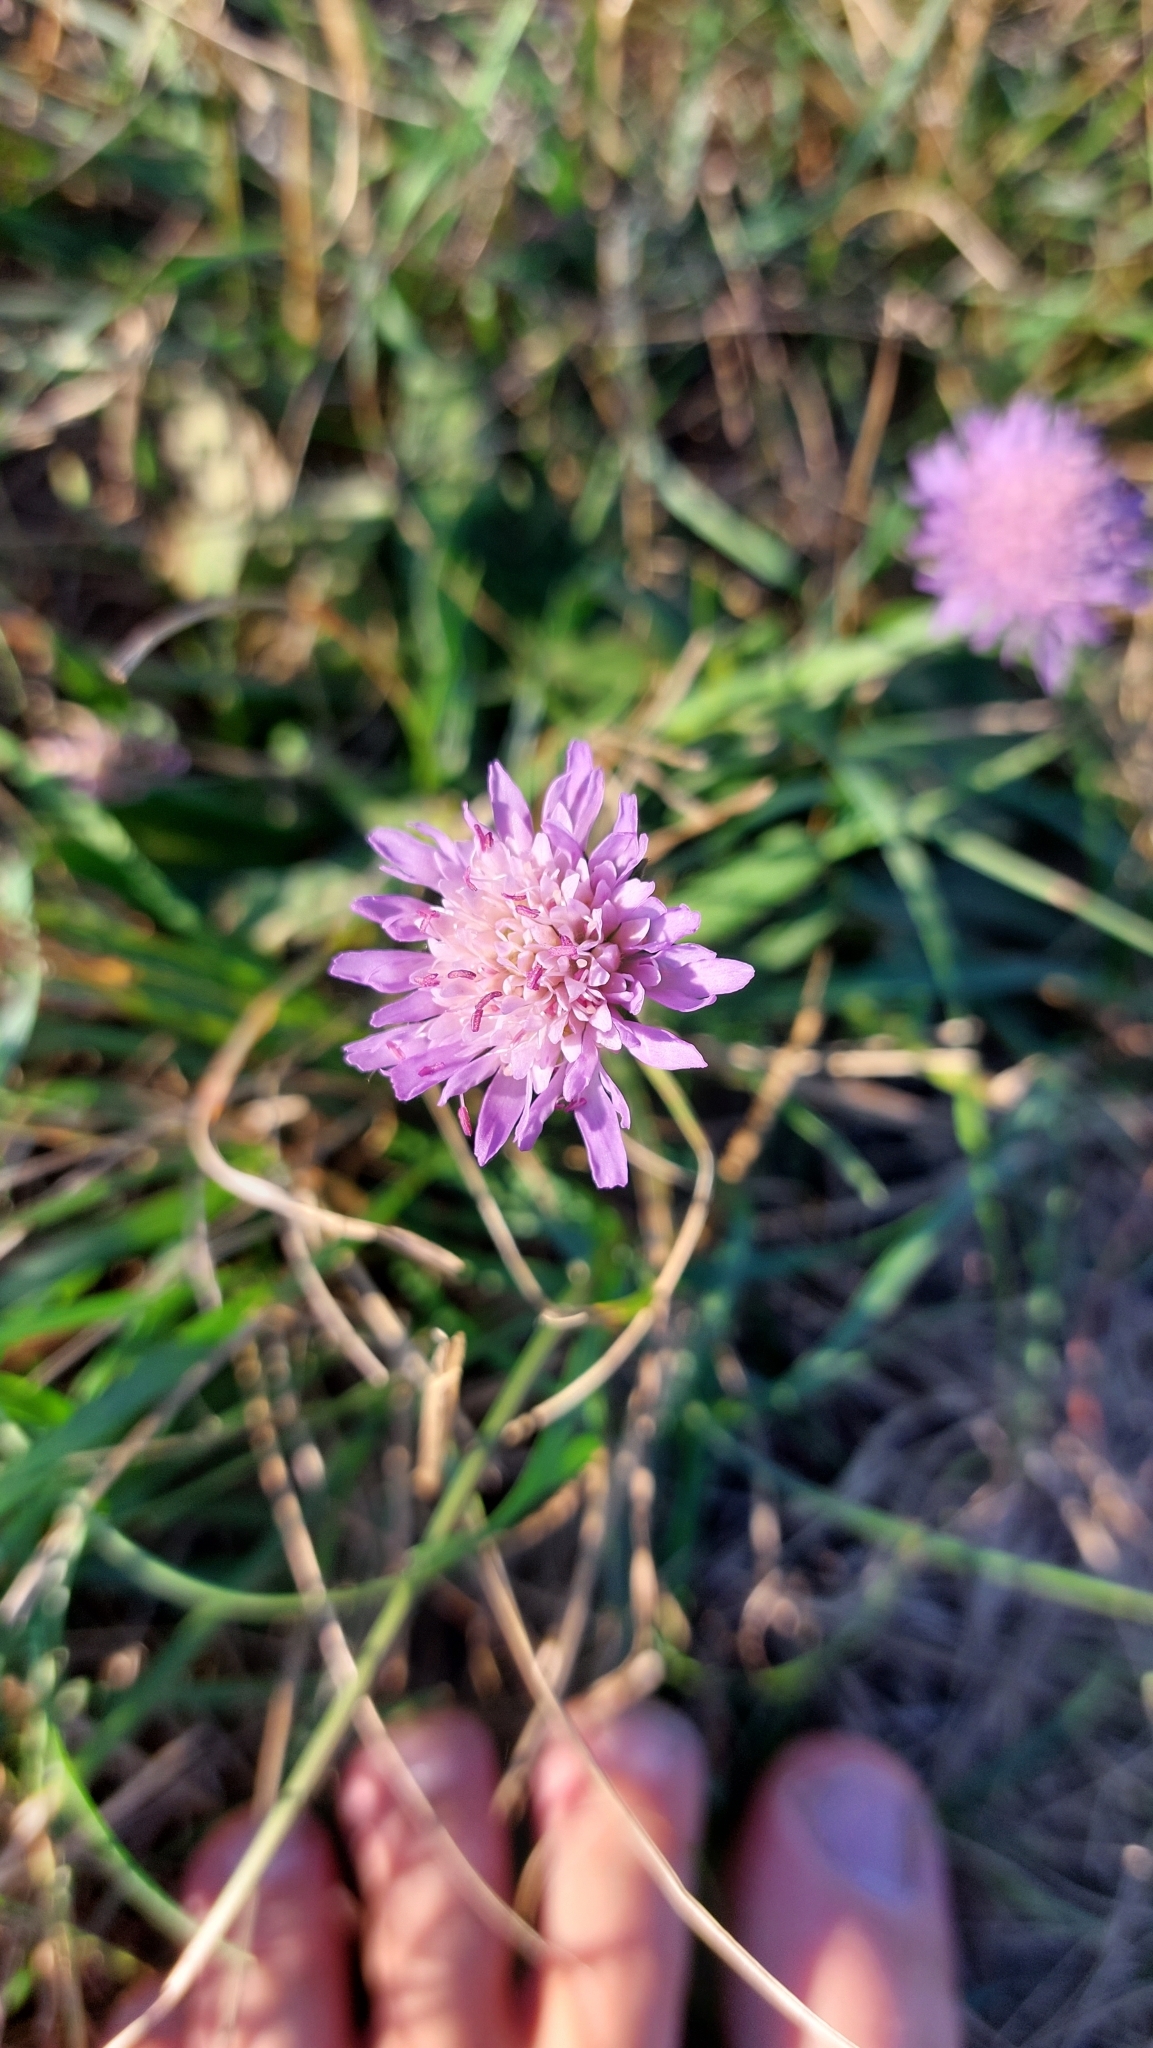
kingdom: Plantae
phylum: Tracheophyta
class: Magnoliopsida
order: Dipsacales
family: Caprifoliaceae
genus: Knautia
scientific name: Knautia arvensis
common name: Field scabiosa
